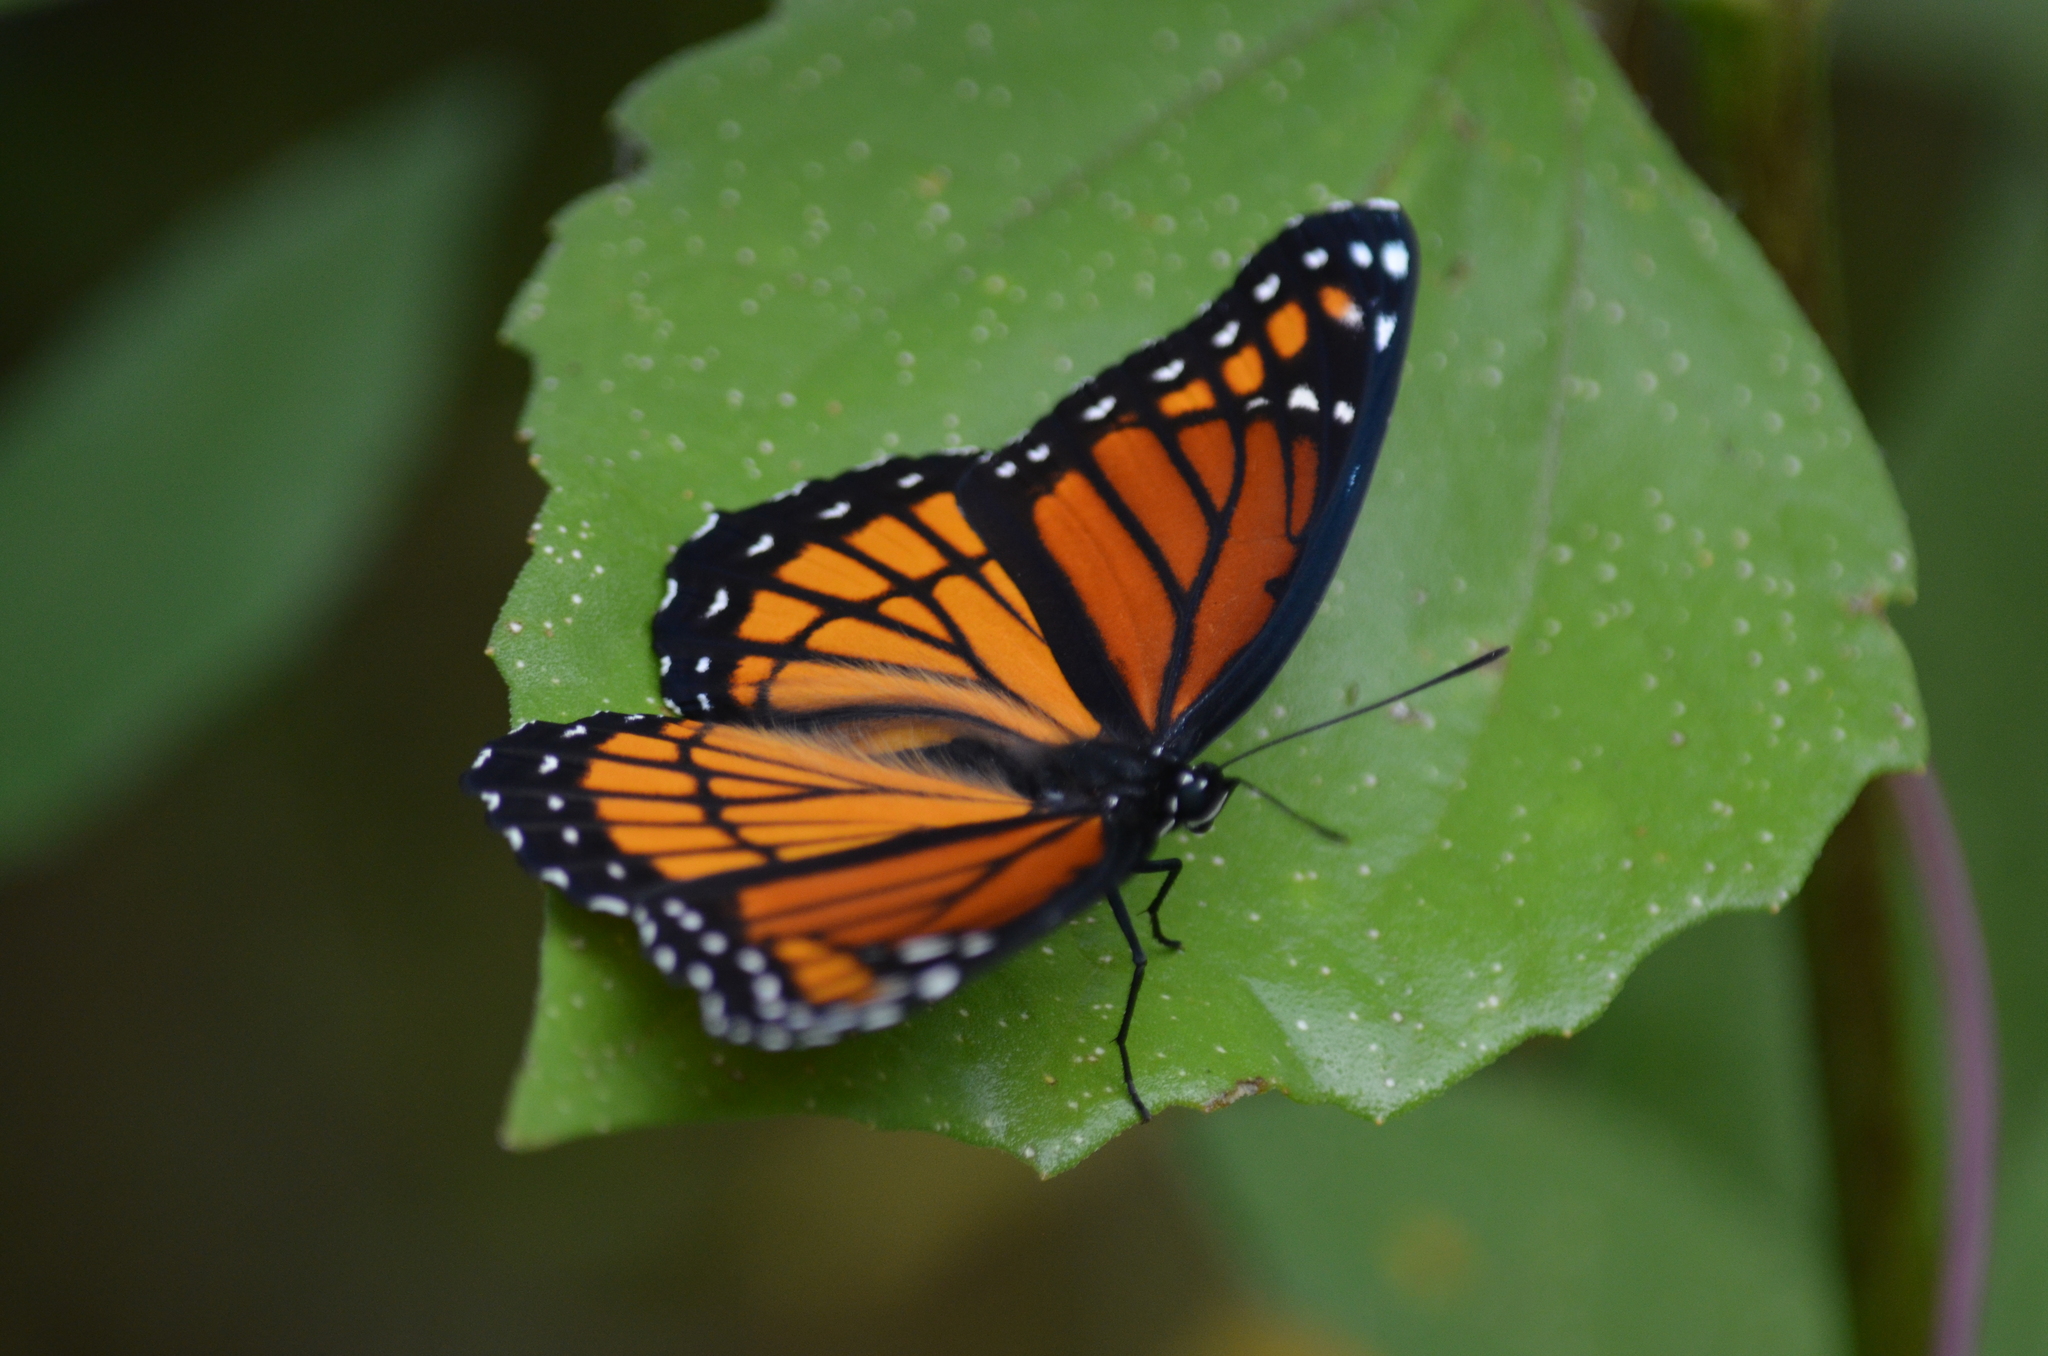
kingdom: Animalia
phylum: Arthropoda
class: Insecta
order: Lepidoptera
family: Nymphalidae
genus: Limenitis
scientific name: Limenitis archippus
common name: Viceroy
